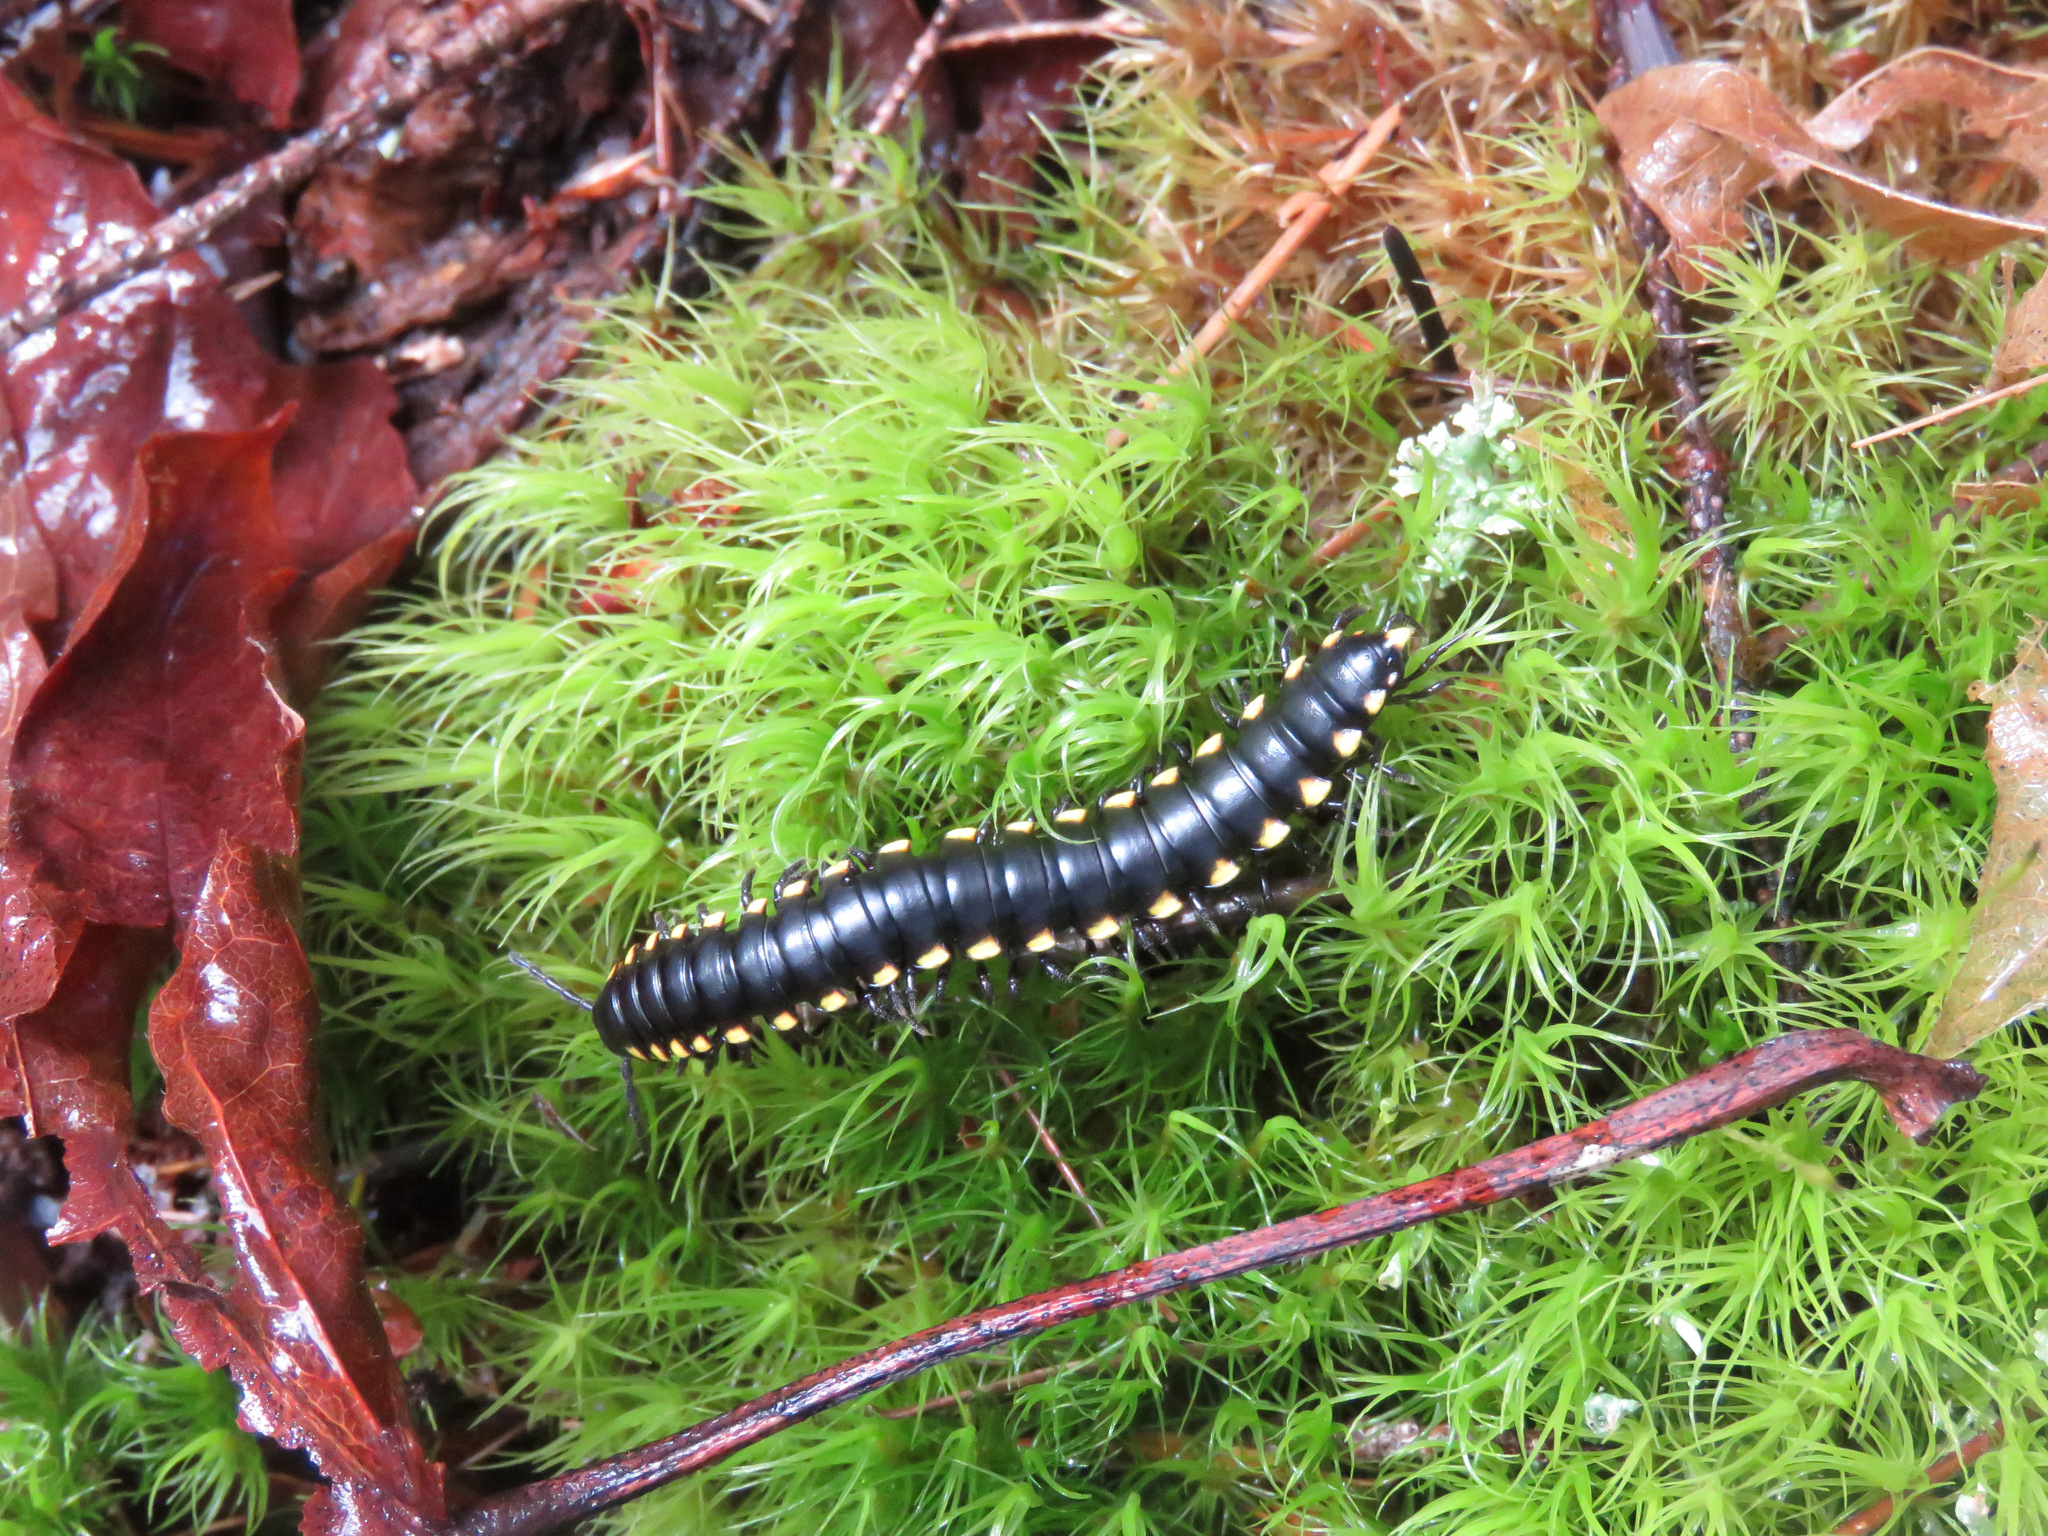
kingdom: Animalia
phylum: Arthropoda
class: Diplopoda
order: Polydesmida
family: Xystodesmidae
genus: Harpaphe
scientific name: Harpaphe haydeniana
